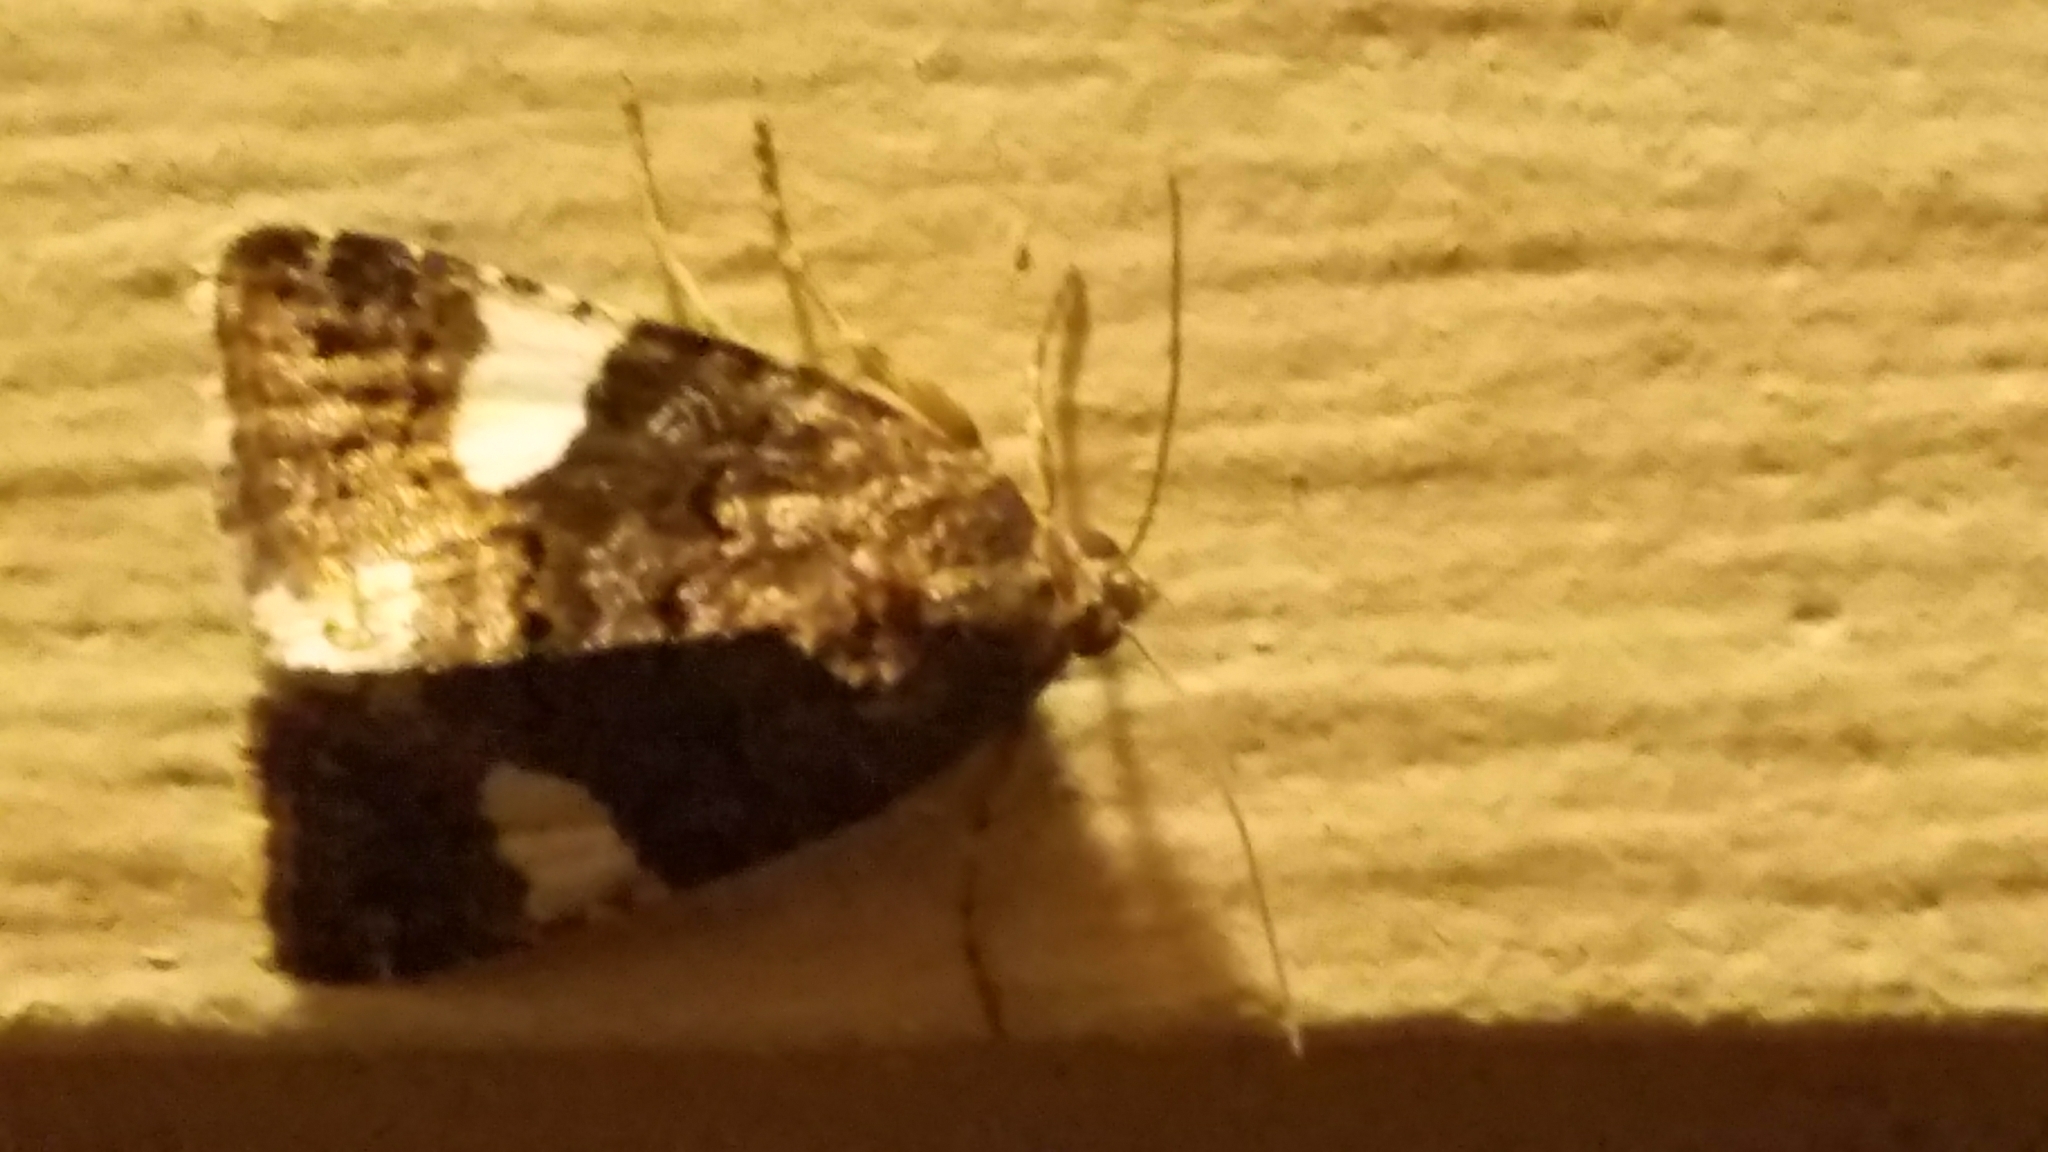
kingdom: Animalia
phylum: Arthropoda
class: Insecta
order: Lepidoptera
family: Erebidae
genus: Tyta
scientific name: Tyta luctuosa
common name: Four-spotted
